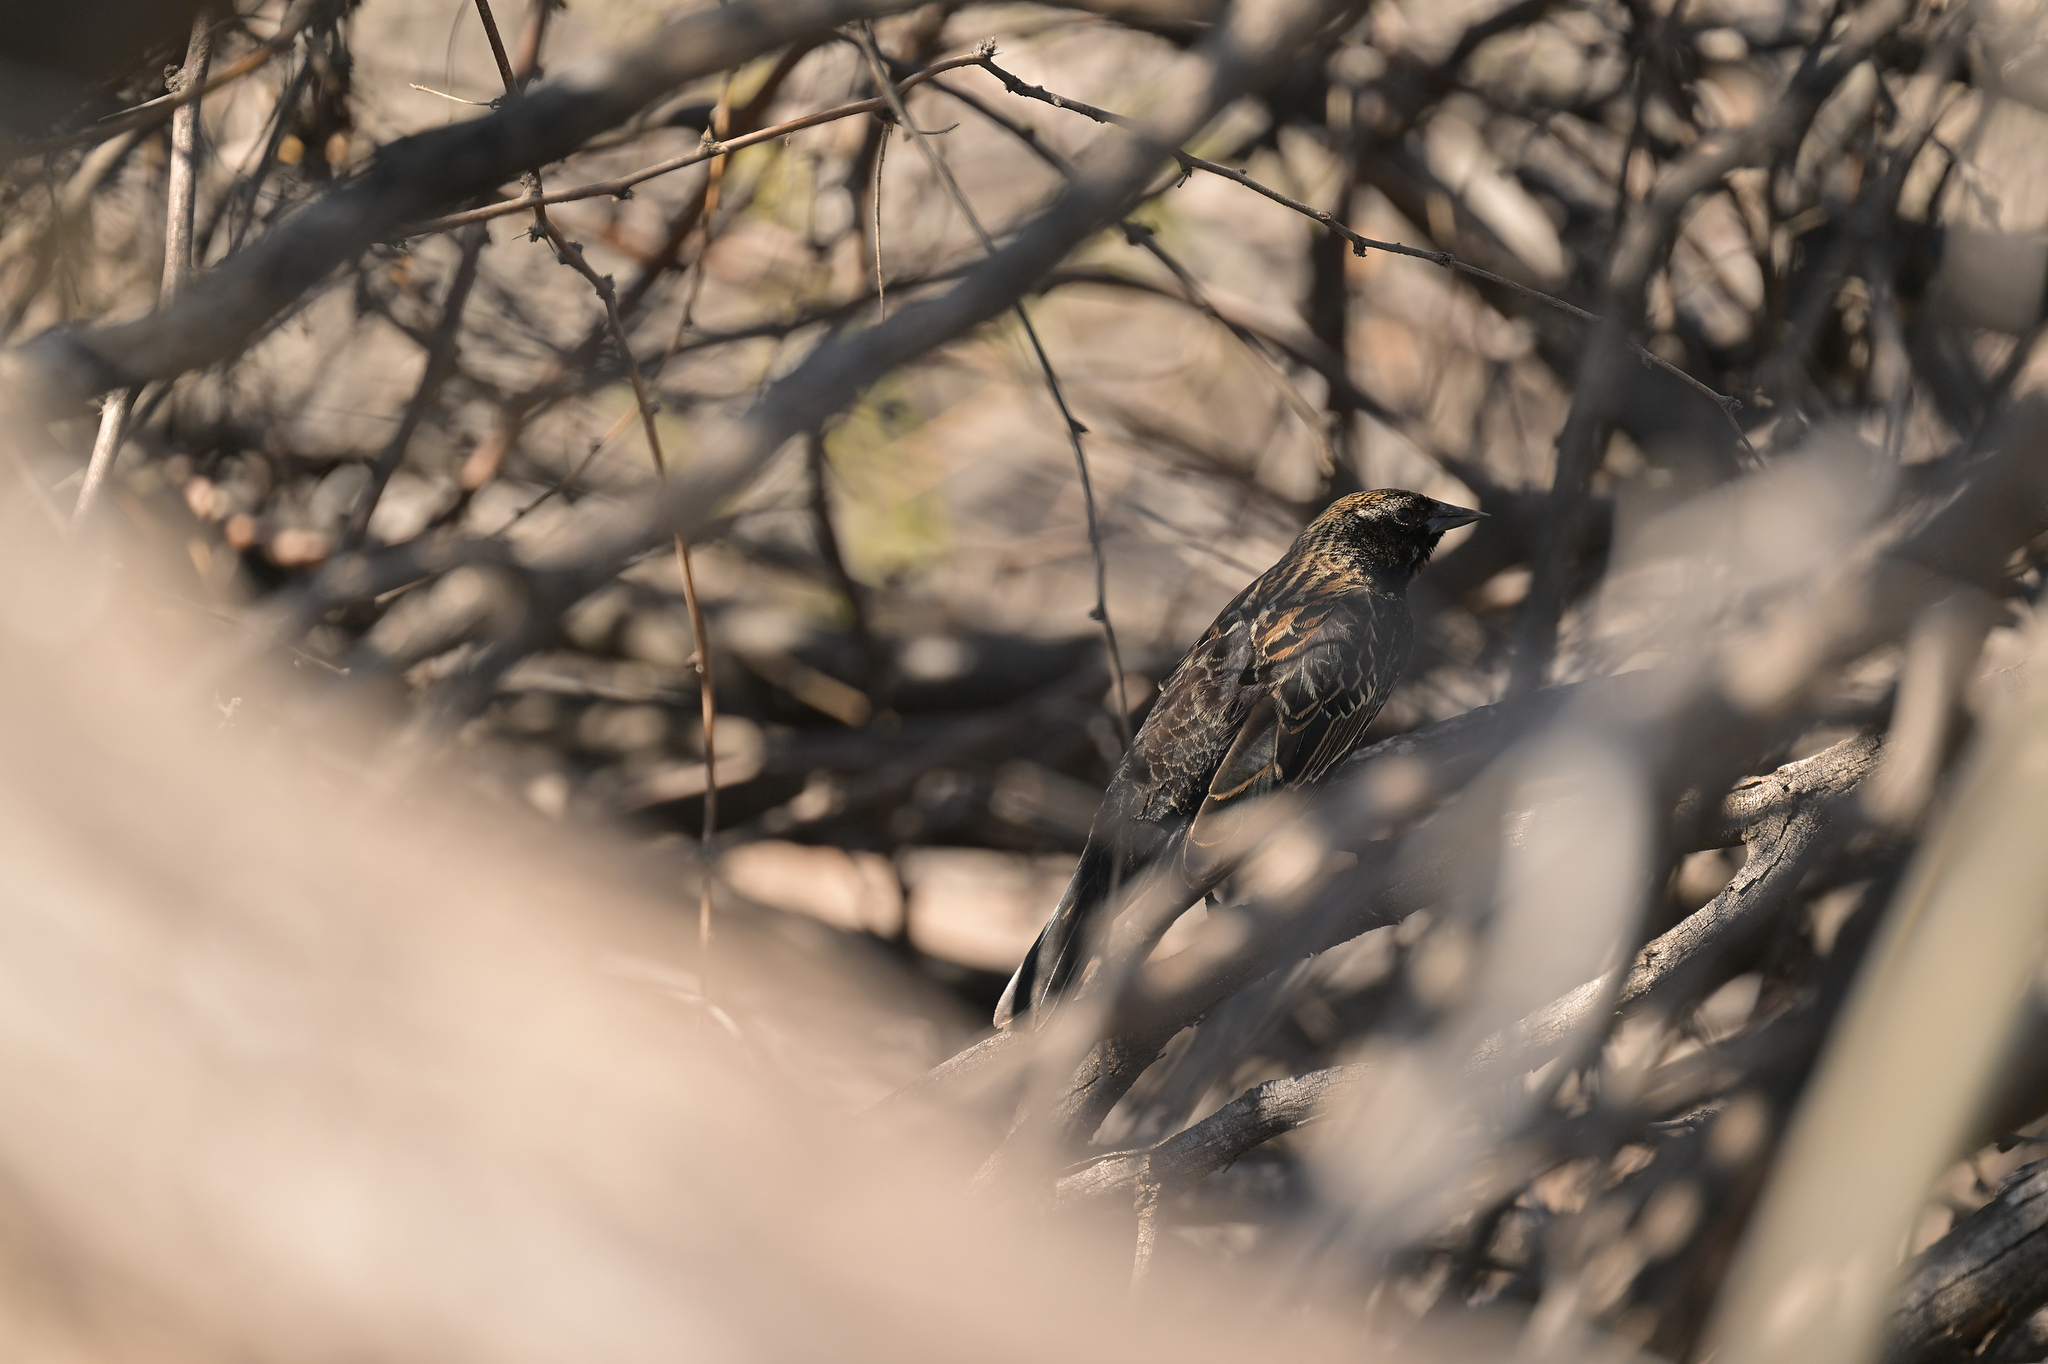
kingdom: Animalia
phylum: Chordata
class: Aves
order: Passeriformes
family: Icteridae
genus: Agelaius
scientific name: Agelaius phoeniceus
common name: Red-winged blackbird
